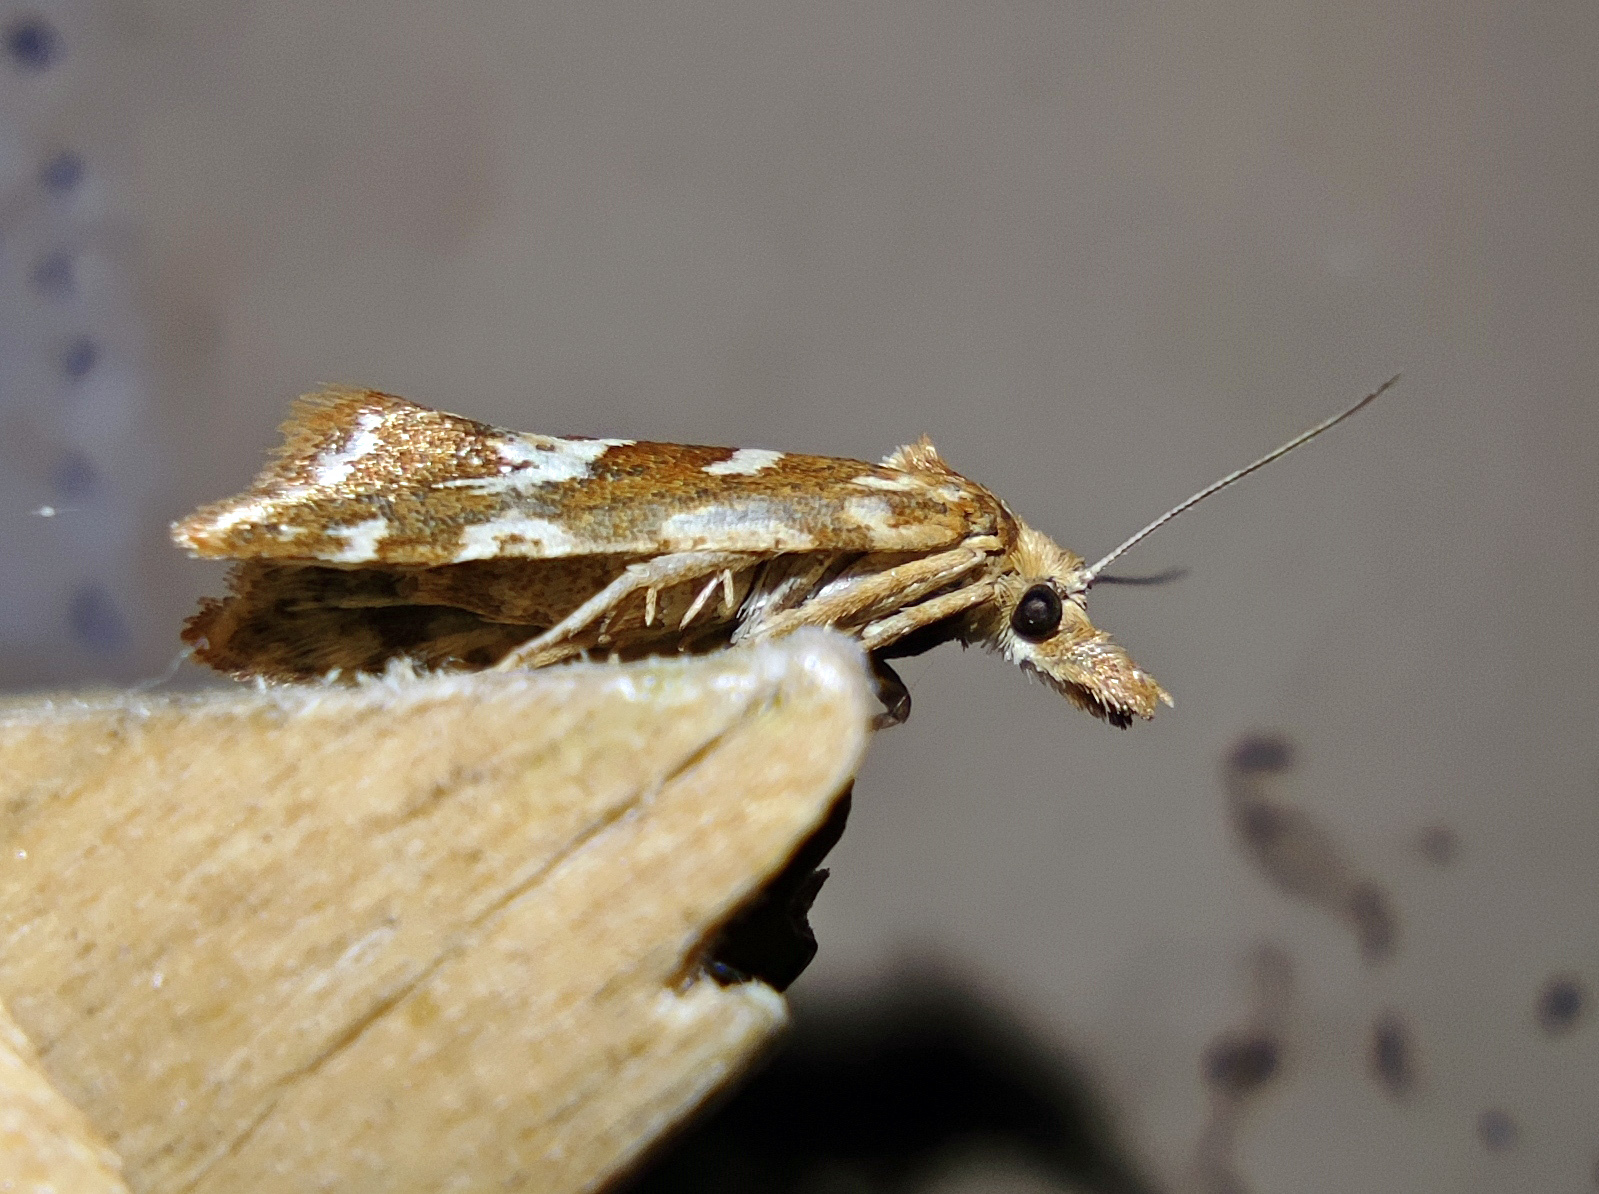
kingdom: Animalia
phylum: Arthropoda
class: Insecta
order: Lepidoptera
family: Tortricidae
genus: Cochylimorpha
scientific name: Cochylimorpha pyramidana
